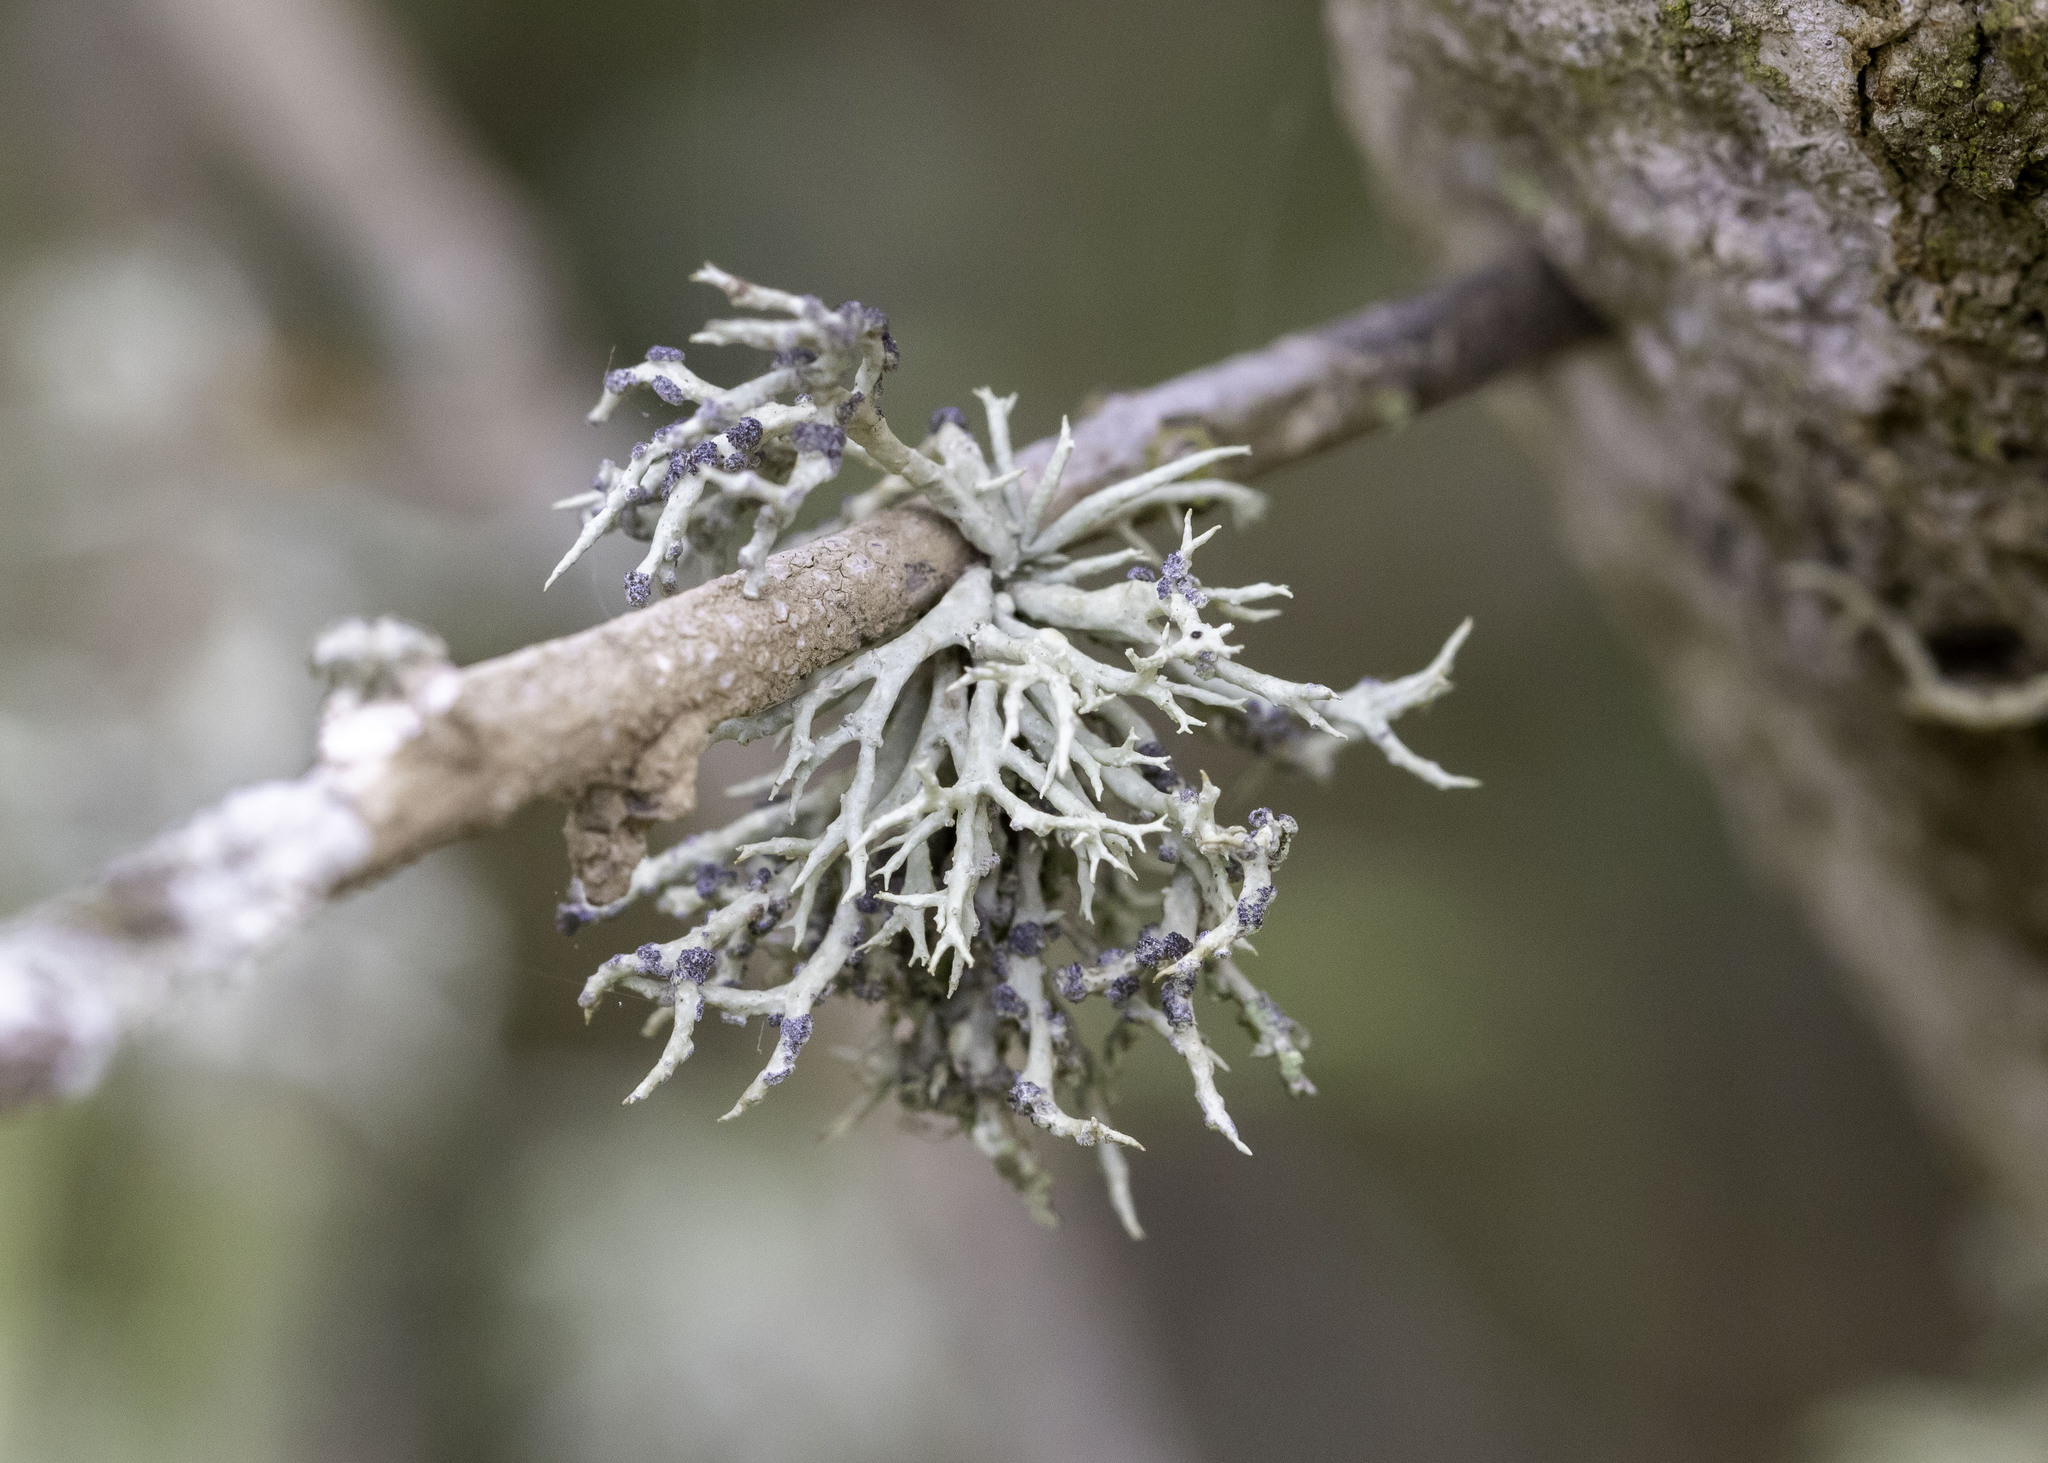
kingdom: Fungi
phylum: Ascomycota
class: Lecanoromycetes
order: Lecanorales
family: Ramalinaceae
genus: Niebla
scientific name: Niebla cephalota
